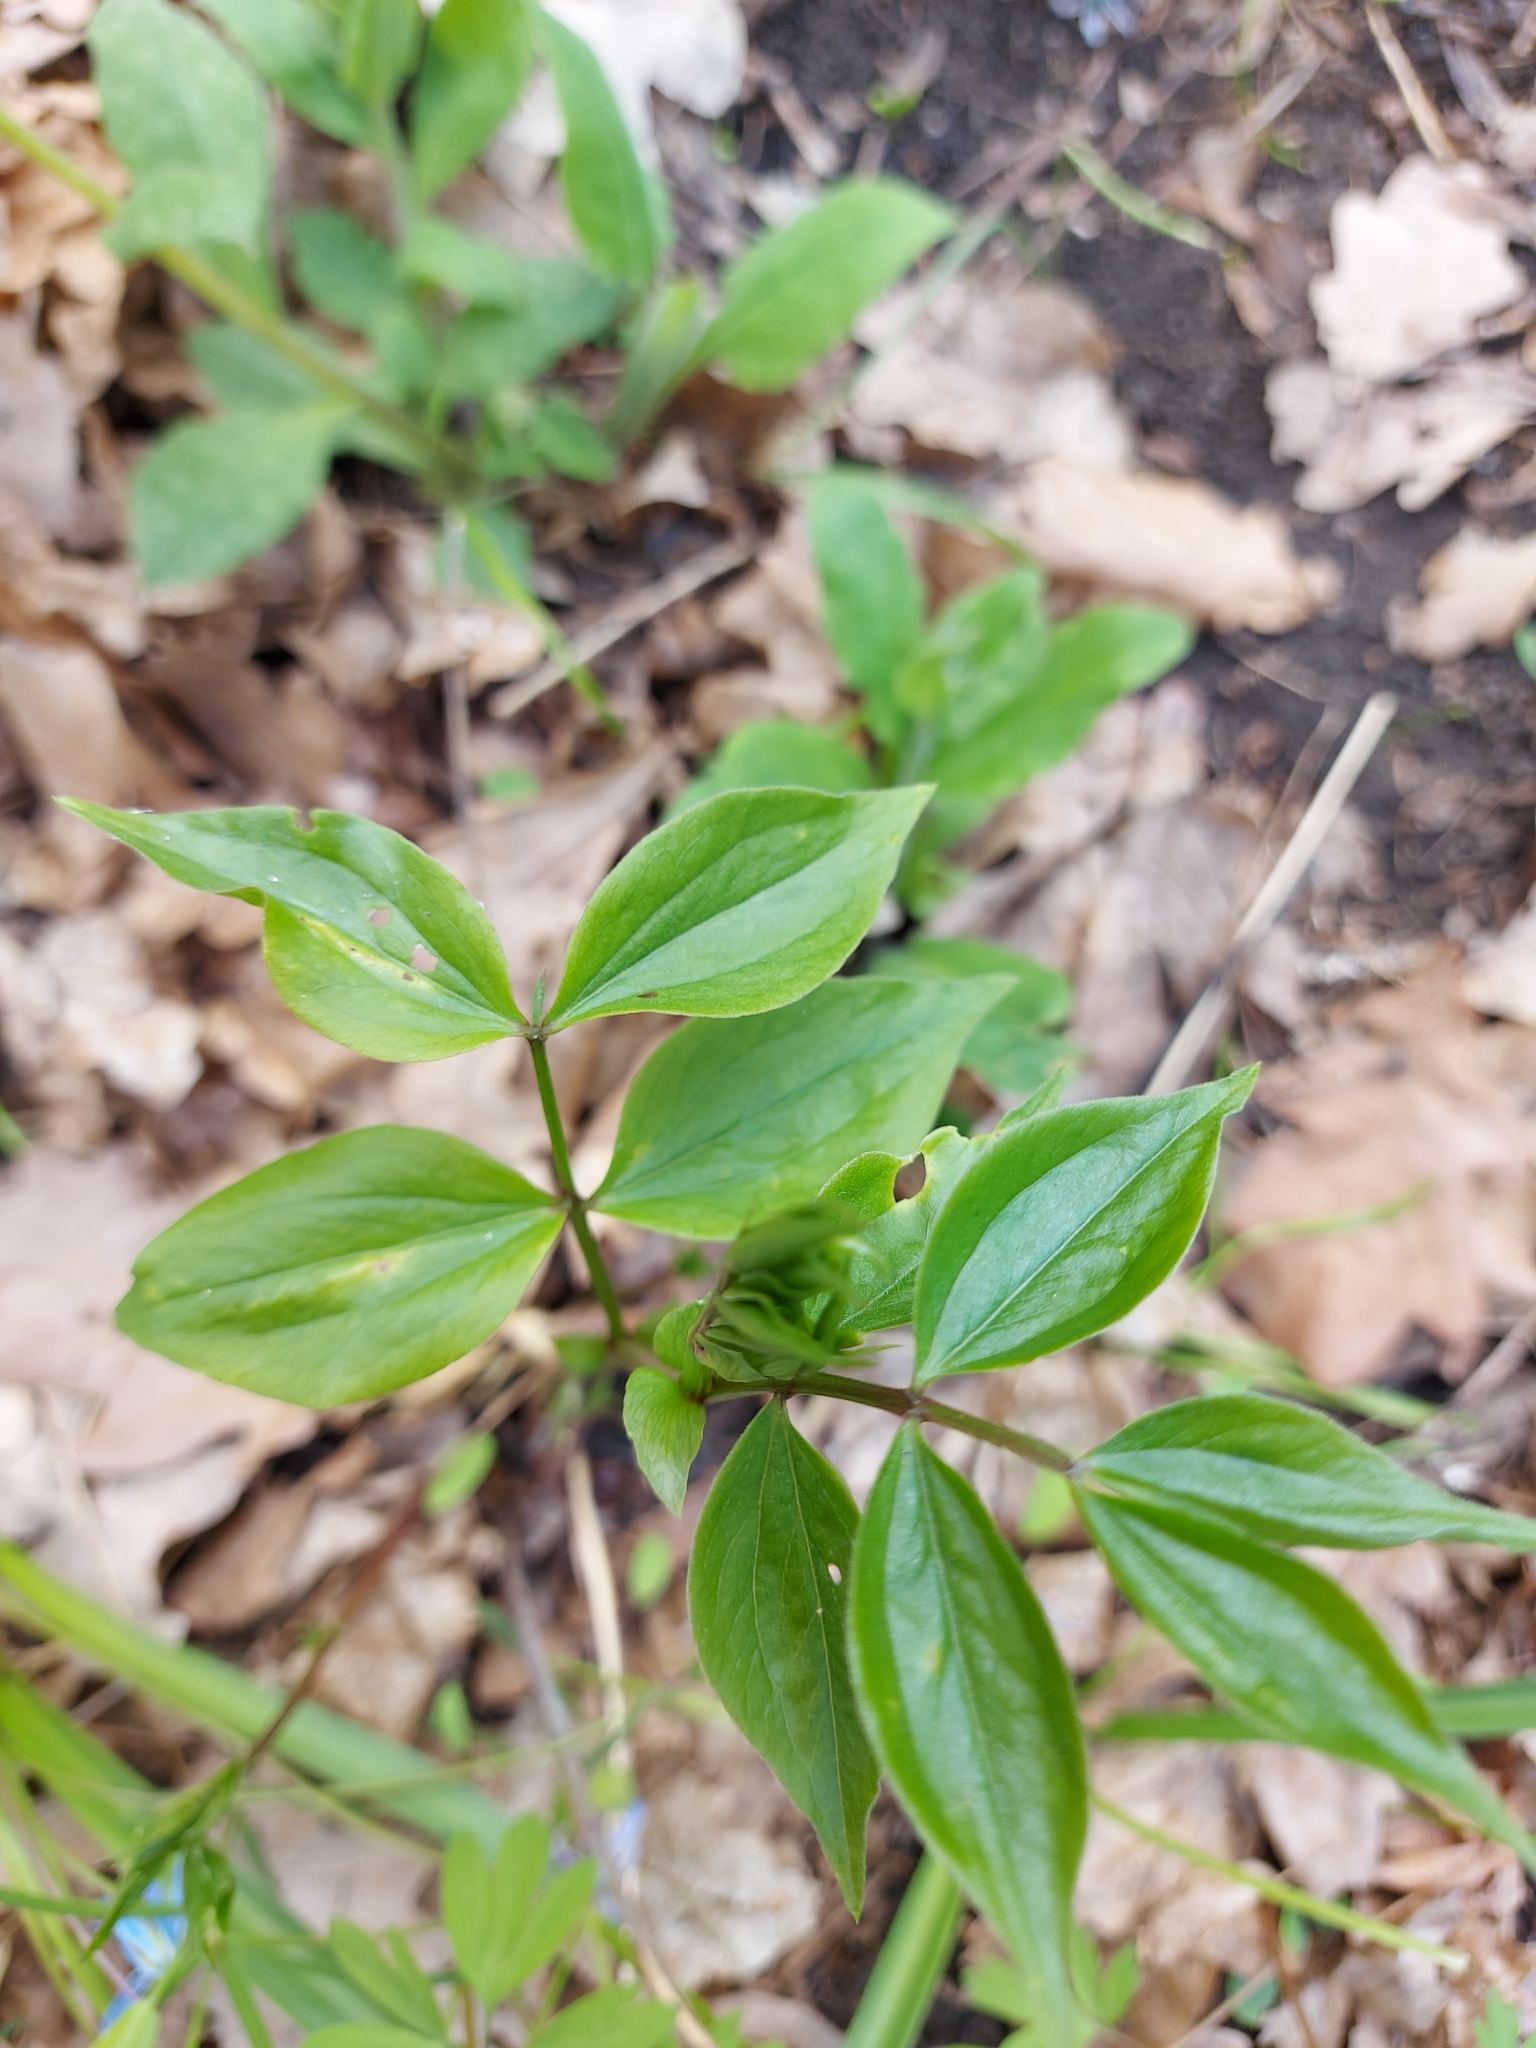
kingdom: Plantae
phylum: Tracheophyta
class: Magnoliopsida
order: Fabales
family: Fabaceae
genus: Lathyrus
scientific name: Lathyrus vernus
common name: Spring pea
